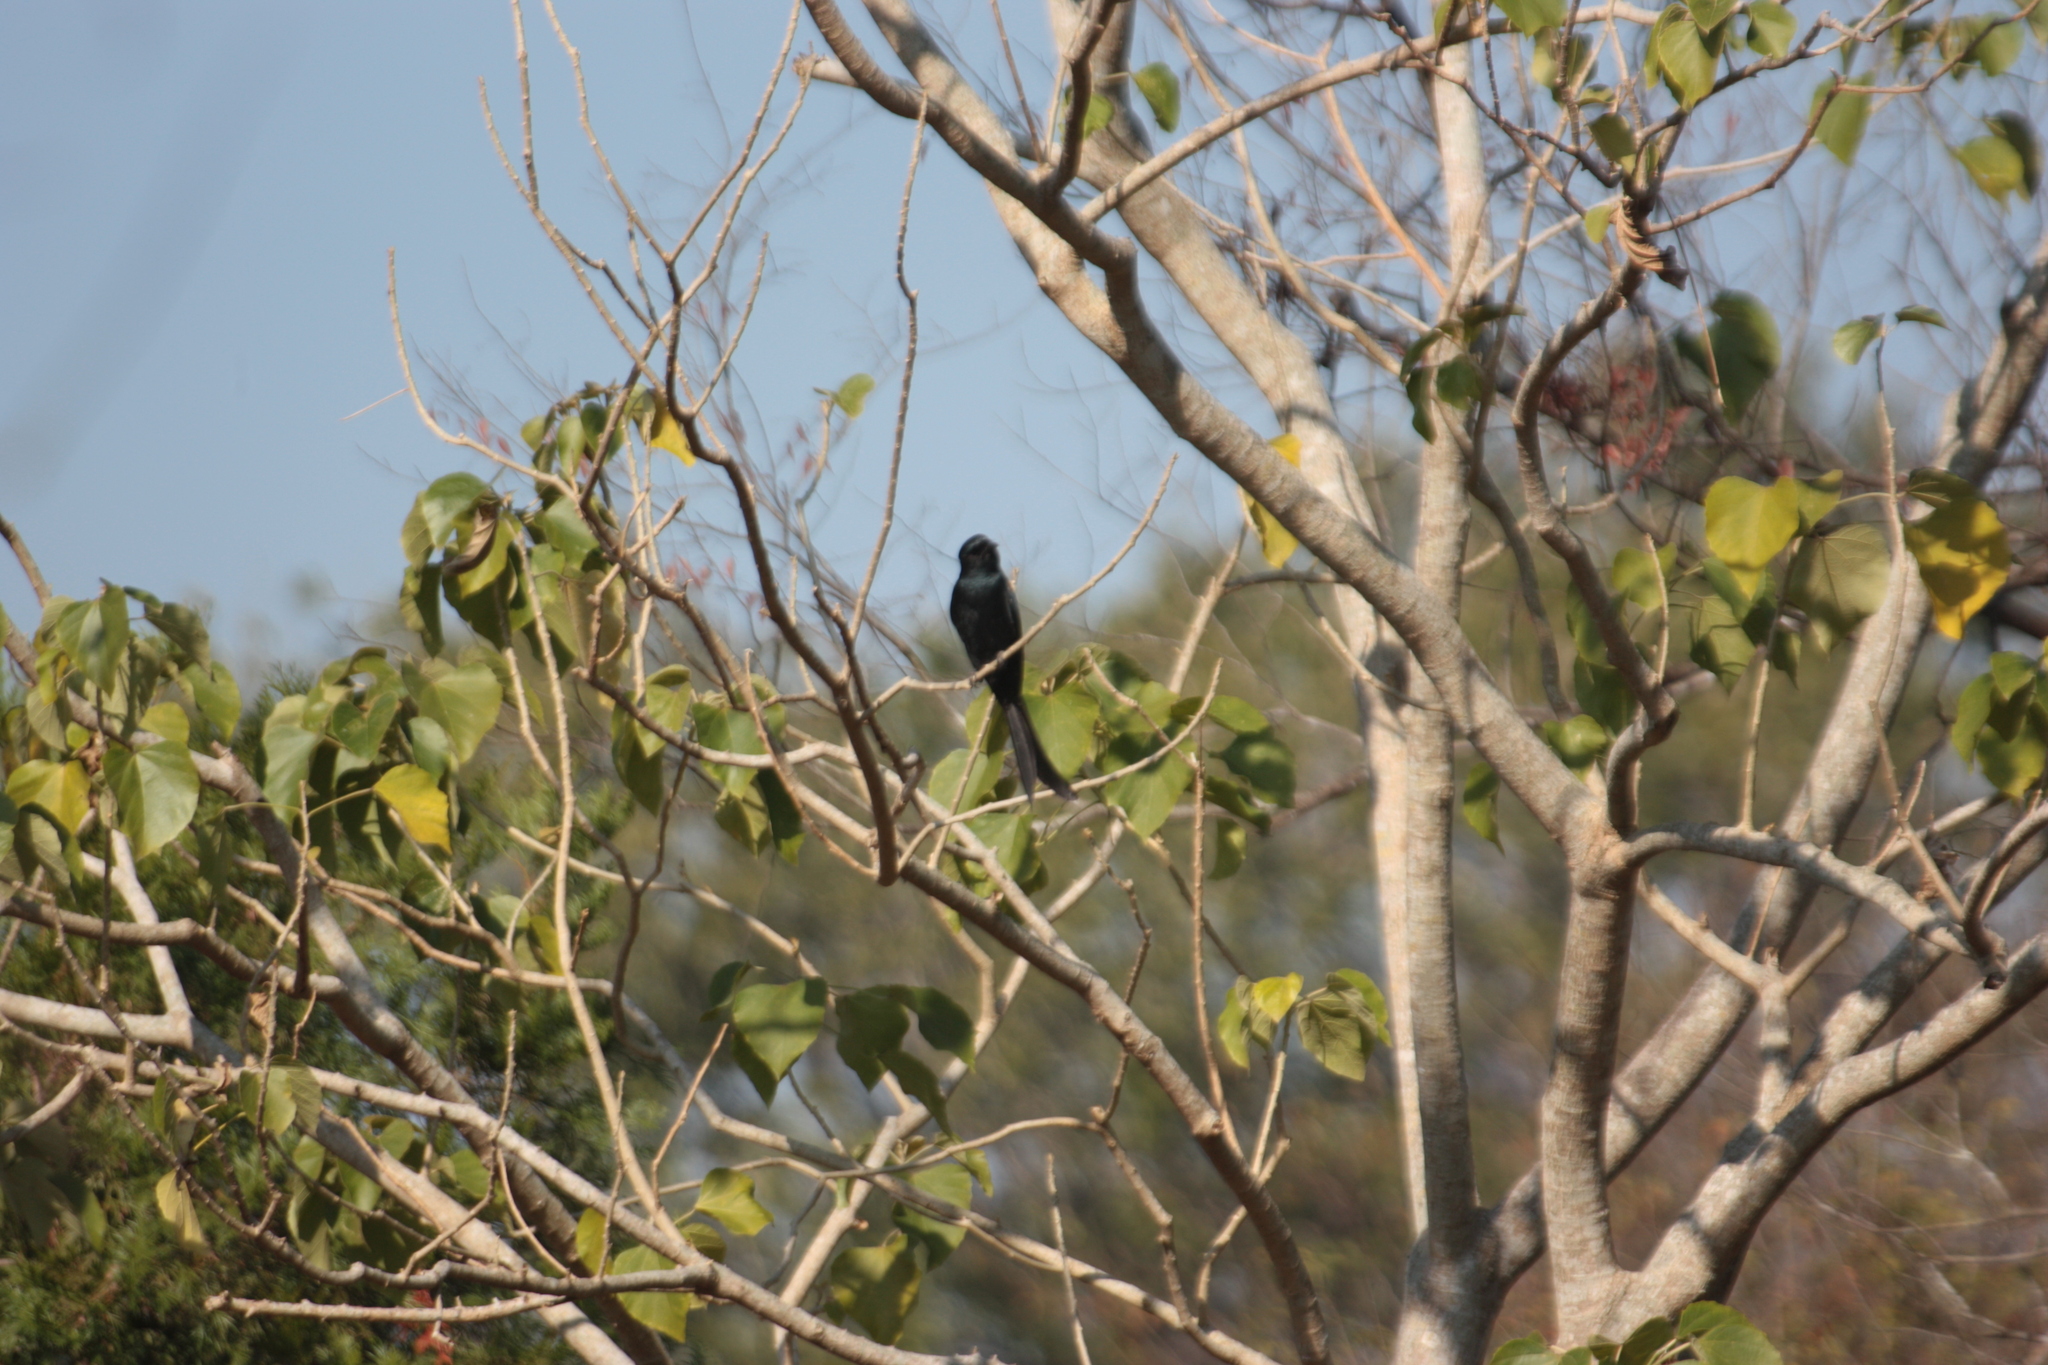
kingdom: Animalia
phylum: Chordata
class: Aves
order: Passeriformes
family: Dicruridae
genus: Dicrurus
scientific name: Dicrurus macrocercus
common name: Black drongo
